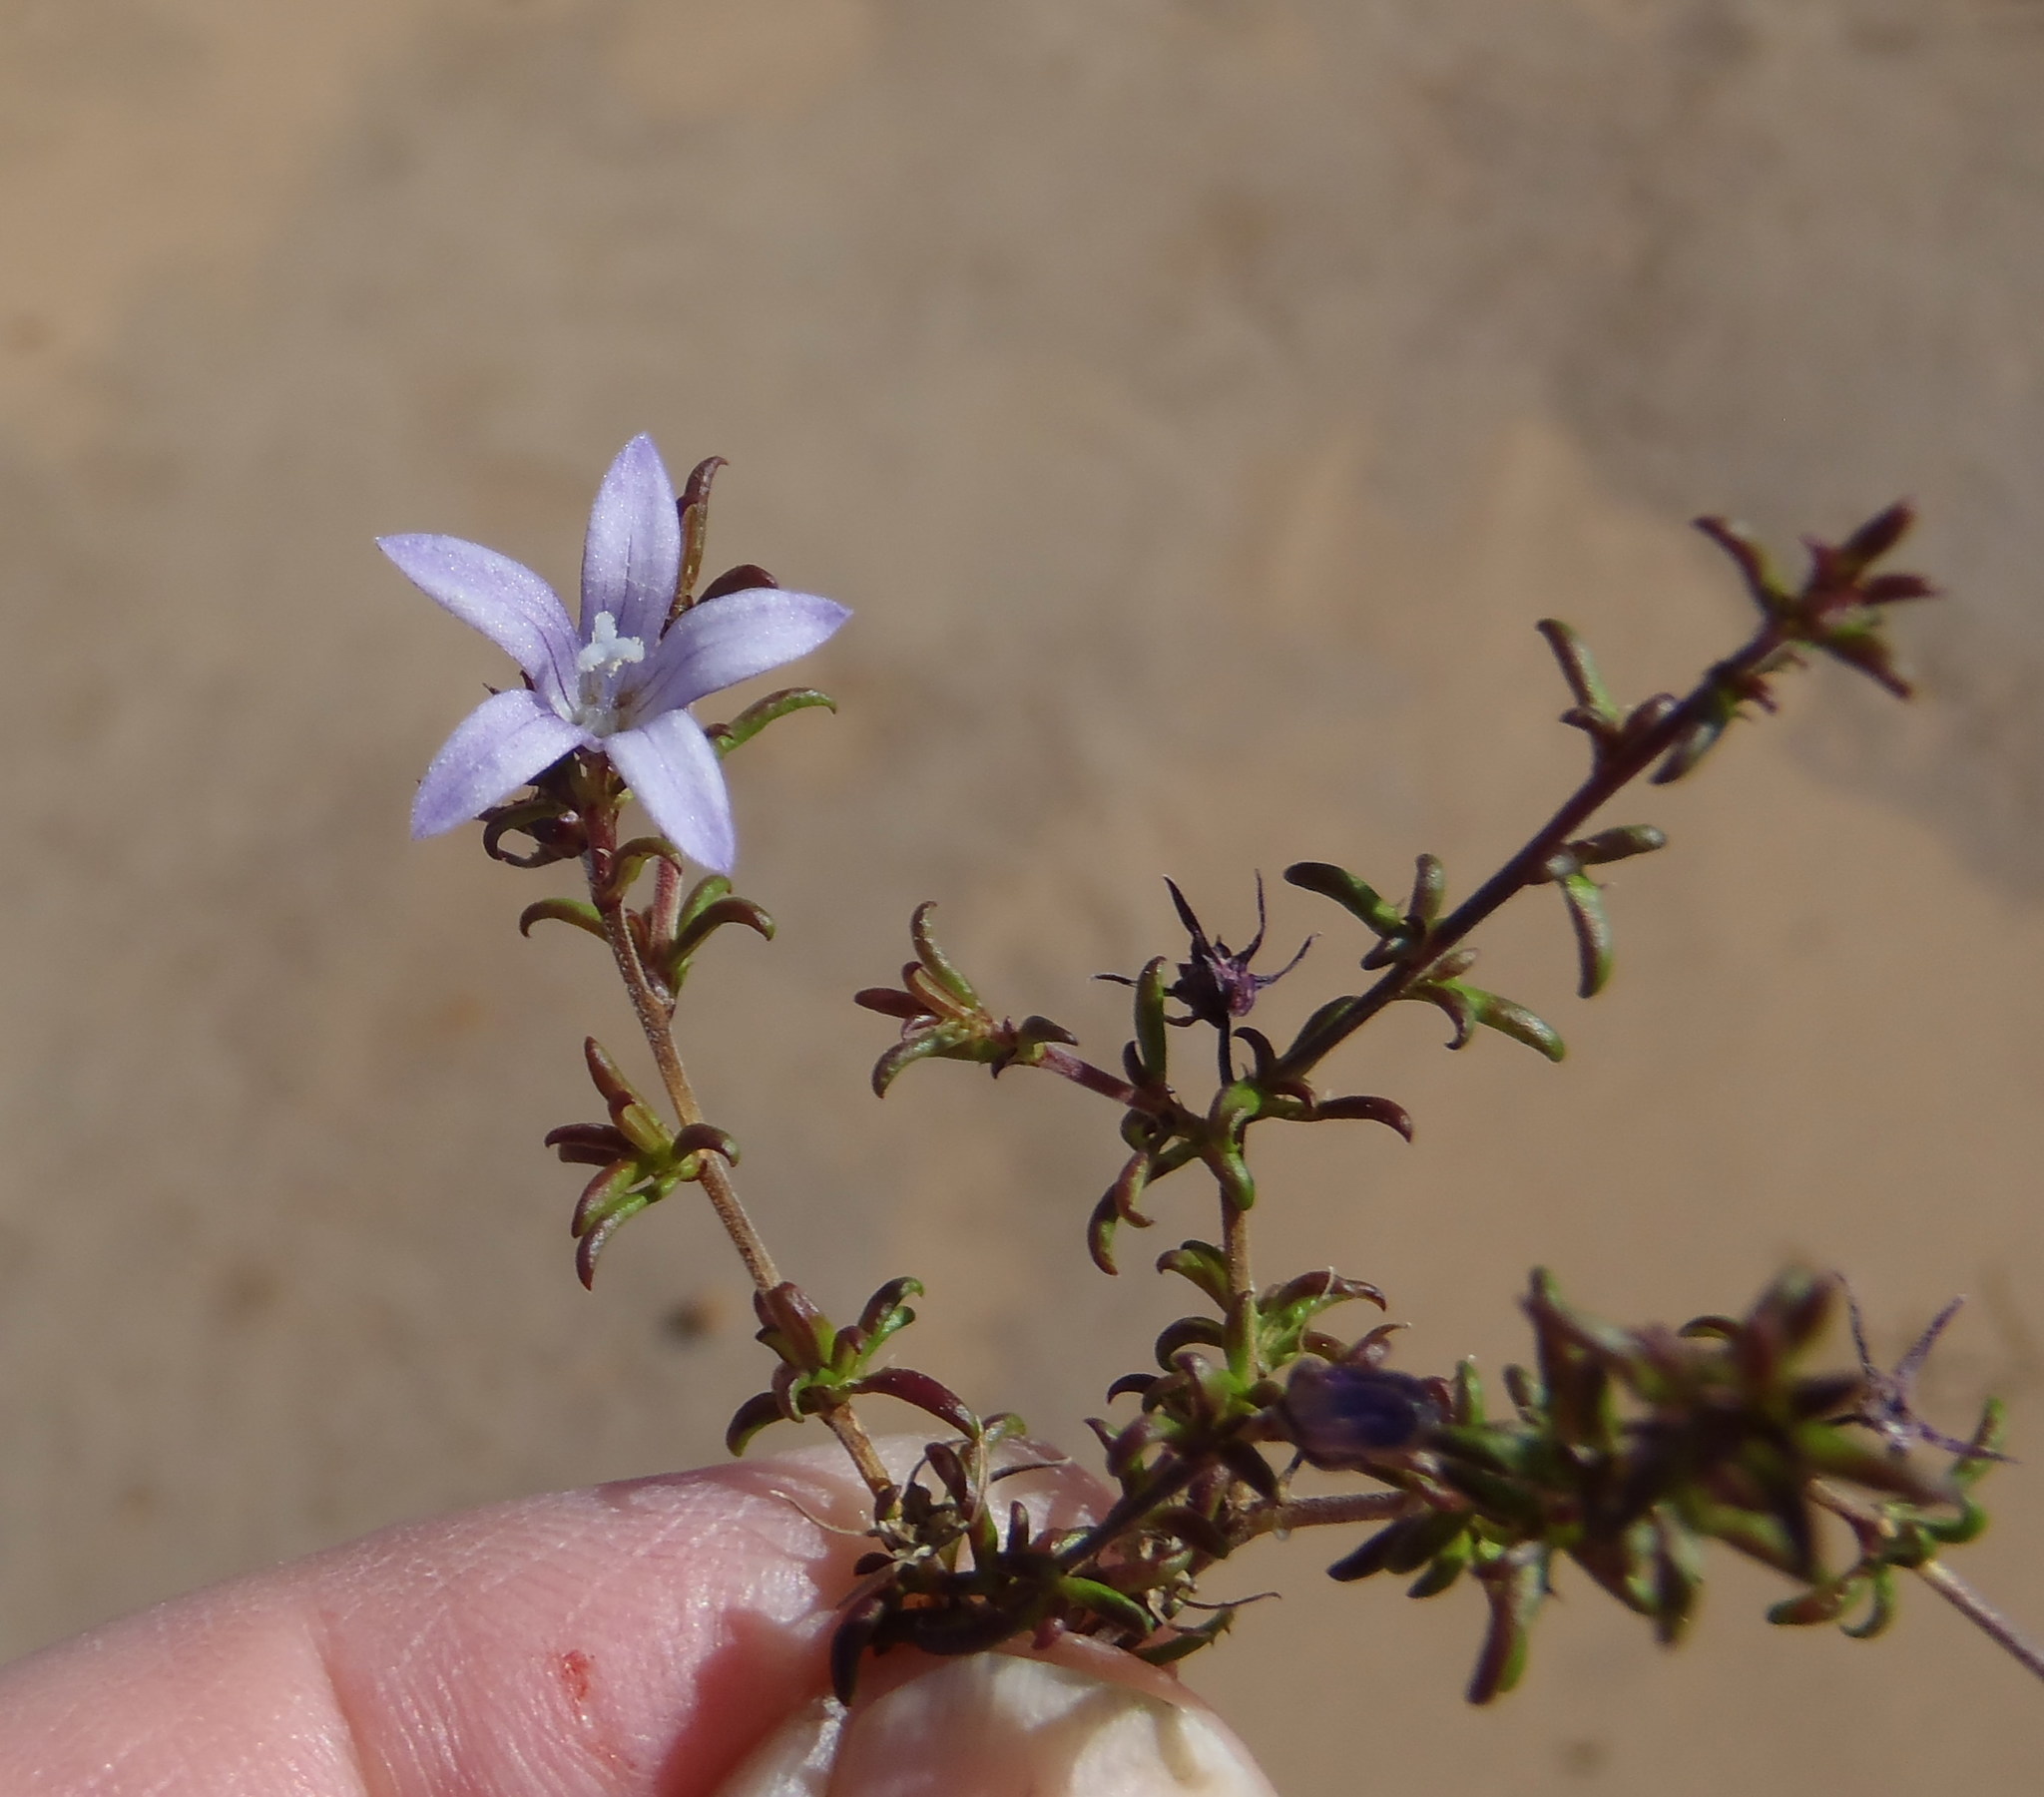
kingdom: Plantae
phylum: Tracheophyta
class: Magnoliopsida
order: Asterales
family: Campanulaceae
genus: Wahlenbergia
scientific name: Wahlenbergia thunbergii
